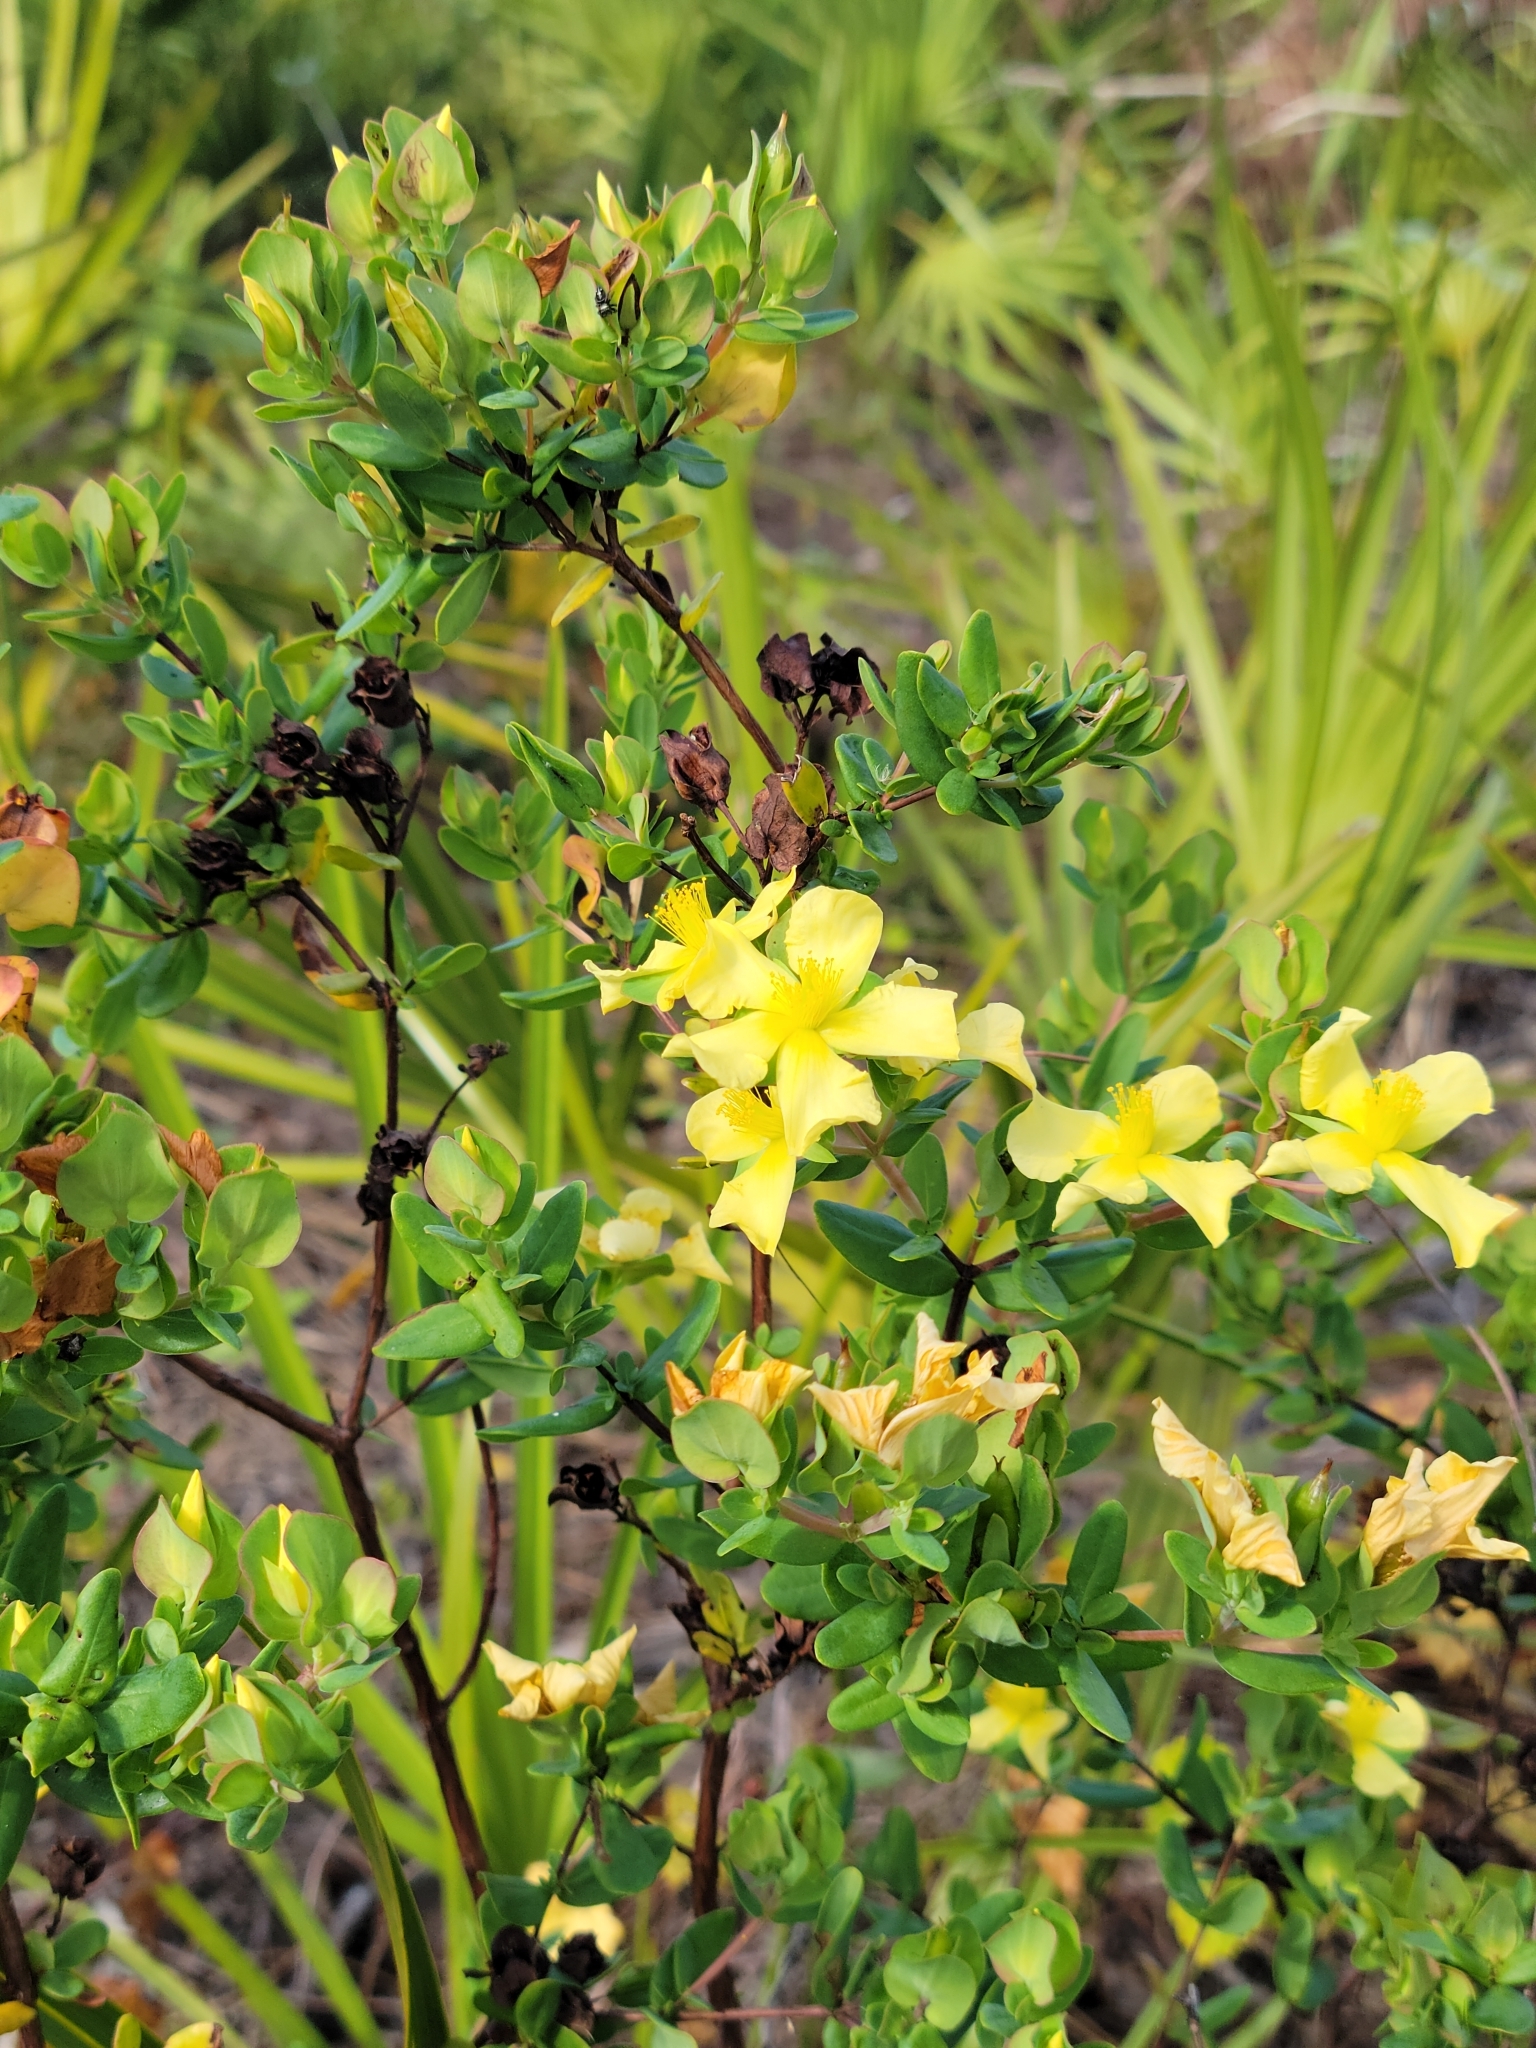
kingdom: Plantae
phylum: Tracheophyta
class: Magnoliopsida
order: Malpighiales
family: Hypericaceae
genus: Hypericum
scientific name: Hypericum crux-andreae
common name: St.-peter's-wort
